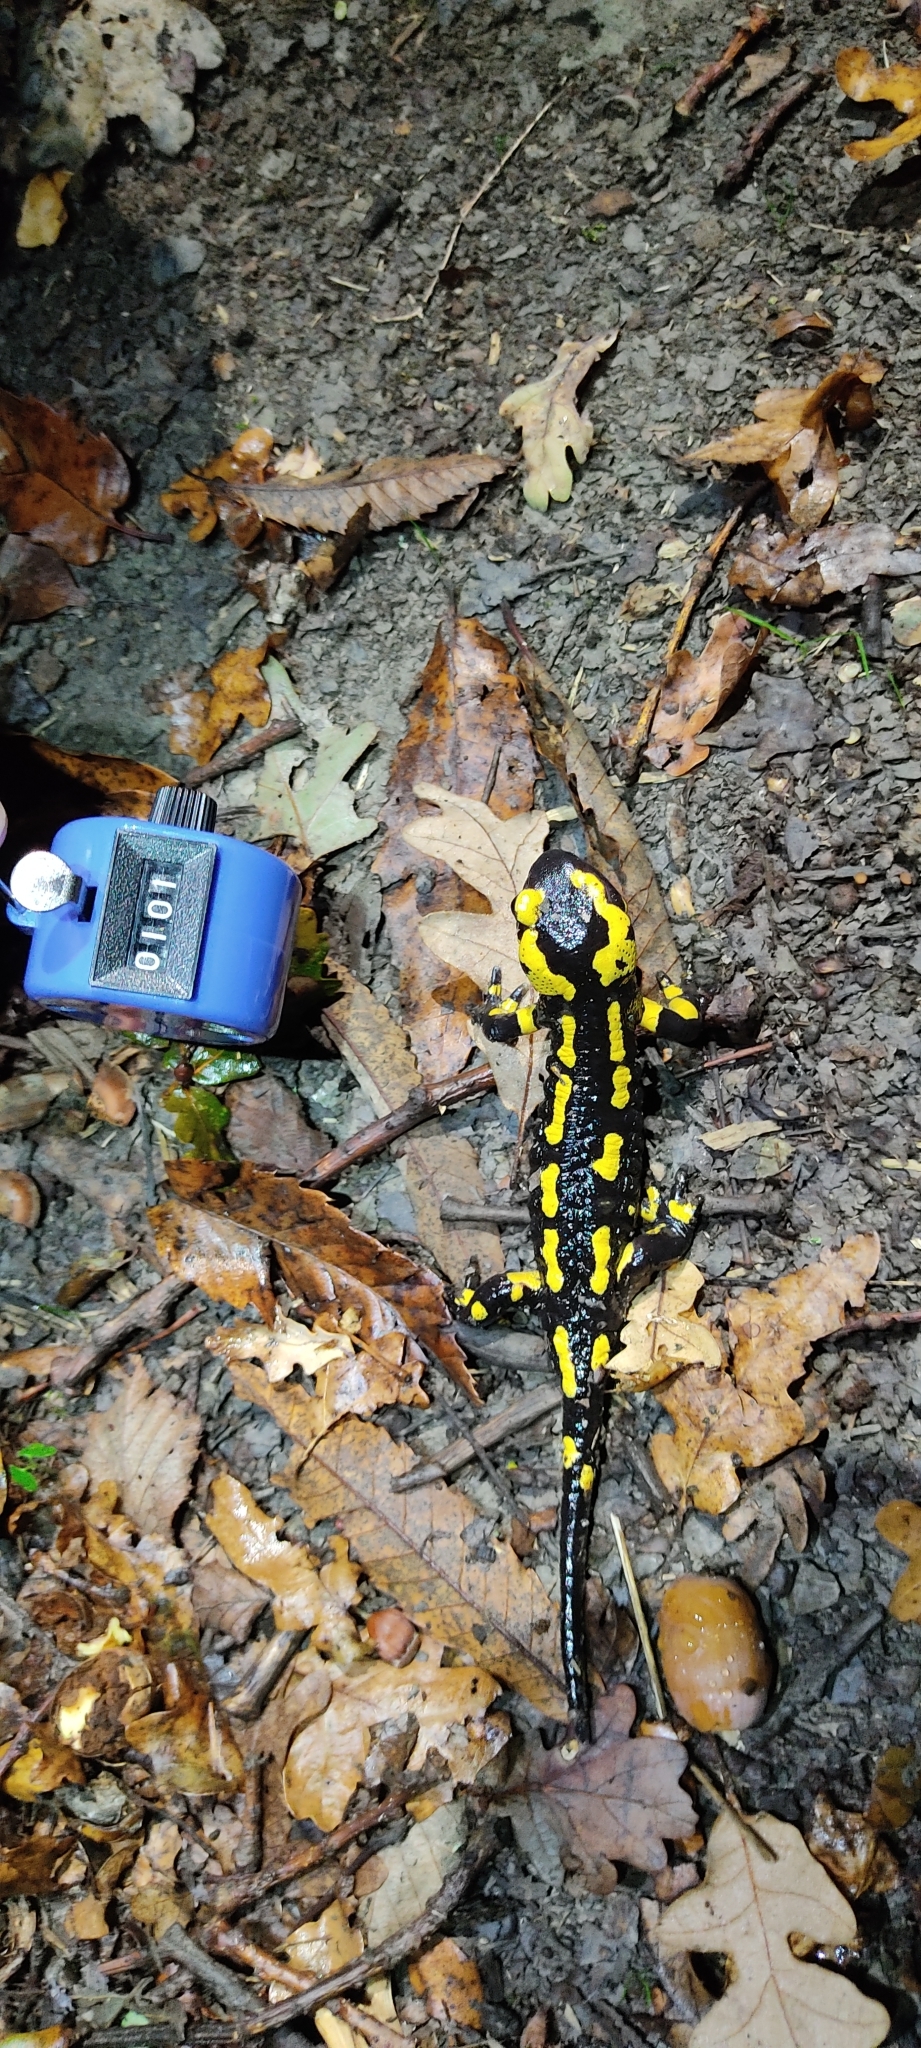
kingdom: Animalia
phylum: Chordata
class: Amphibia
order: Caudata
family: Salamandridae
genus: Salamandra
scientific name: Salamandra salamandra
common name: Fire salamander
